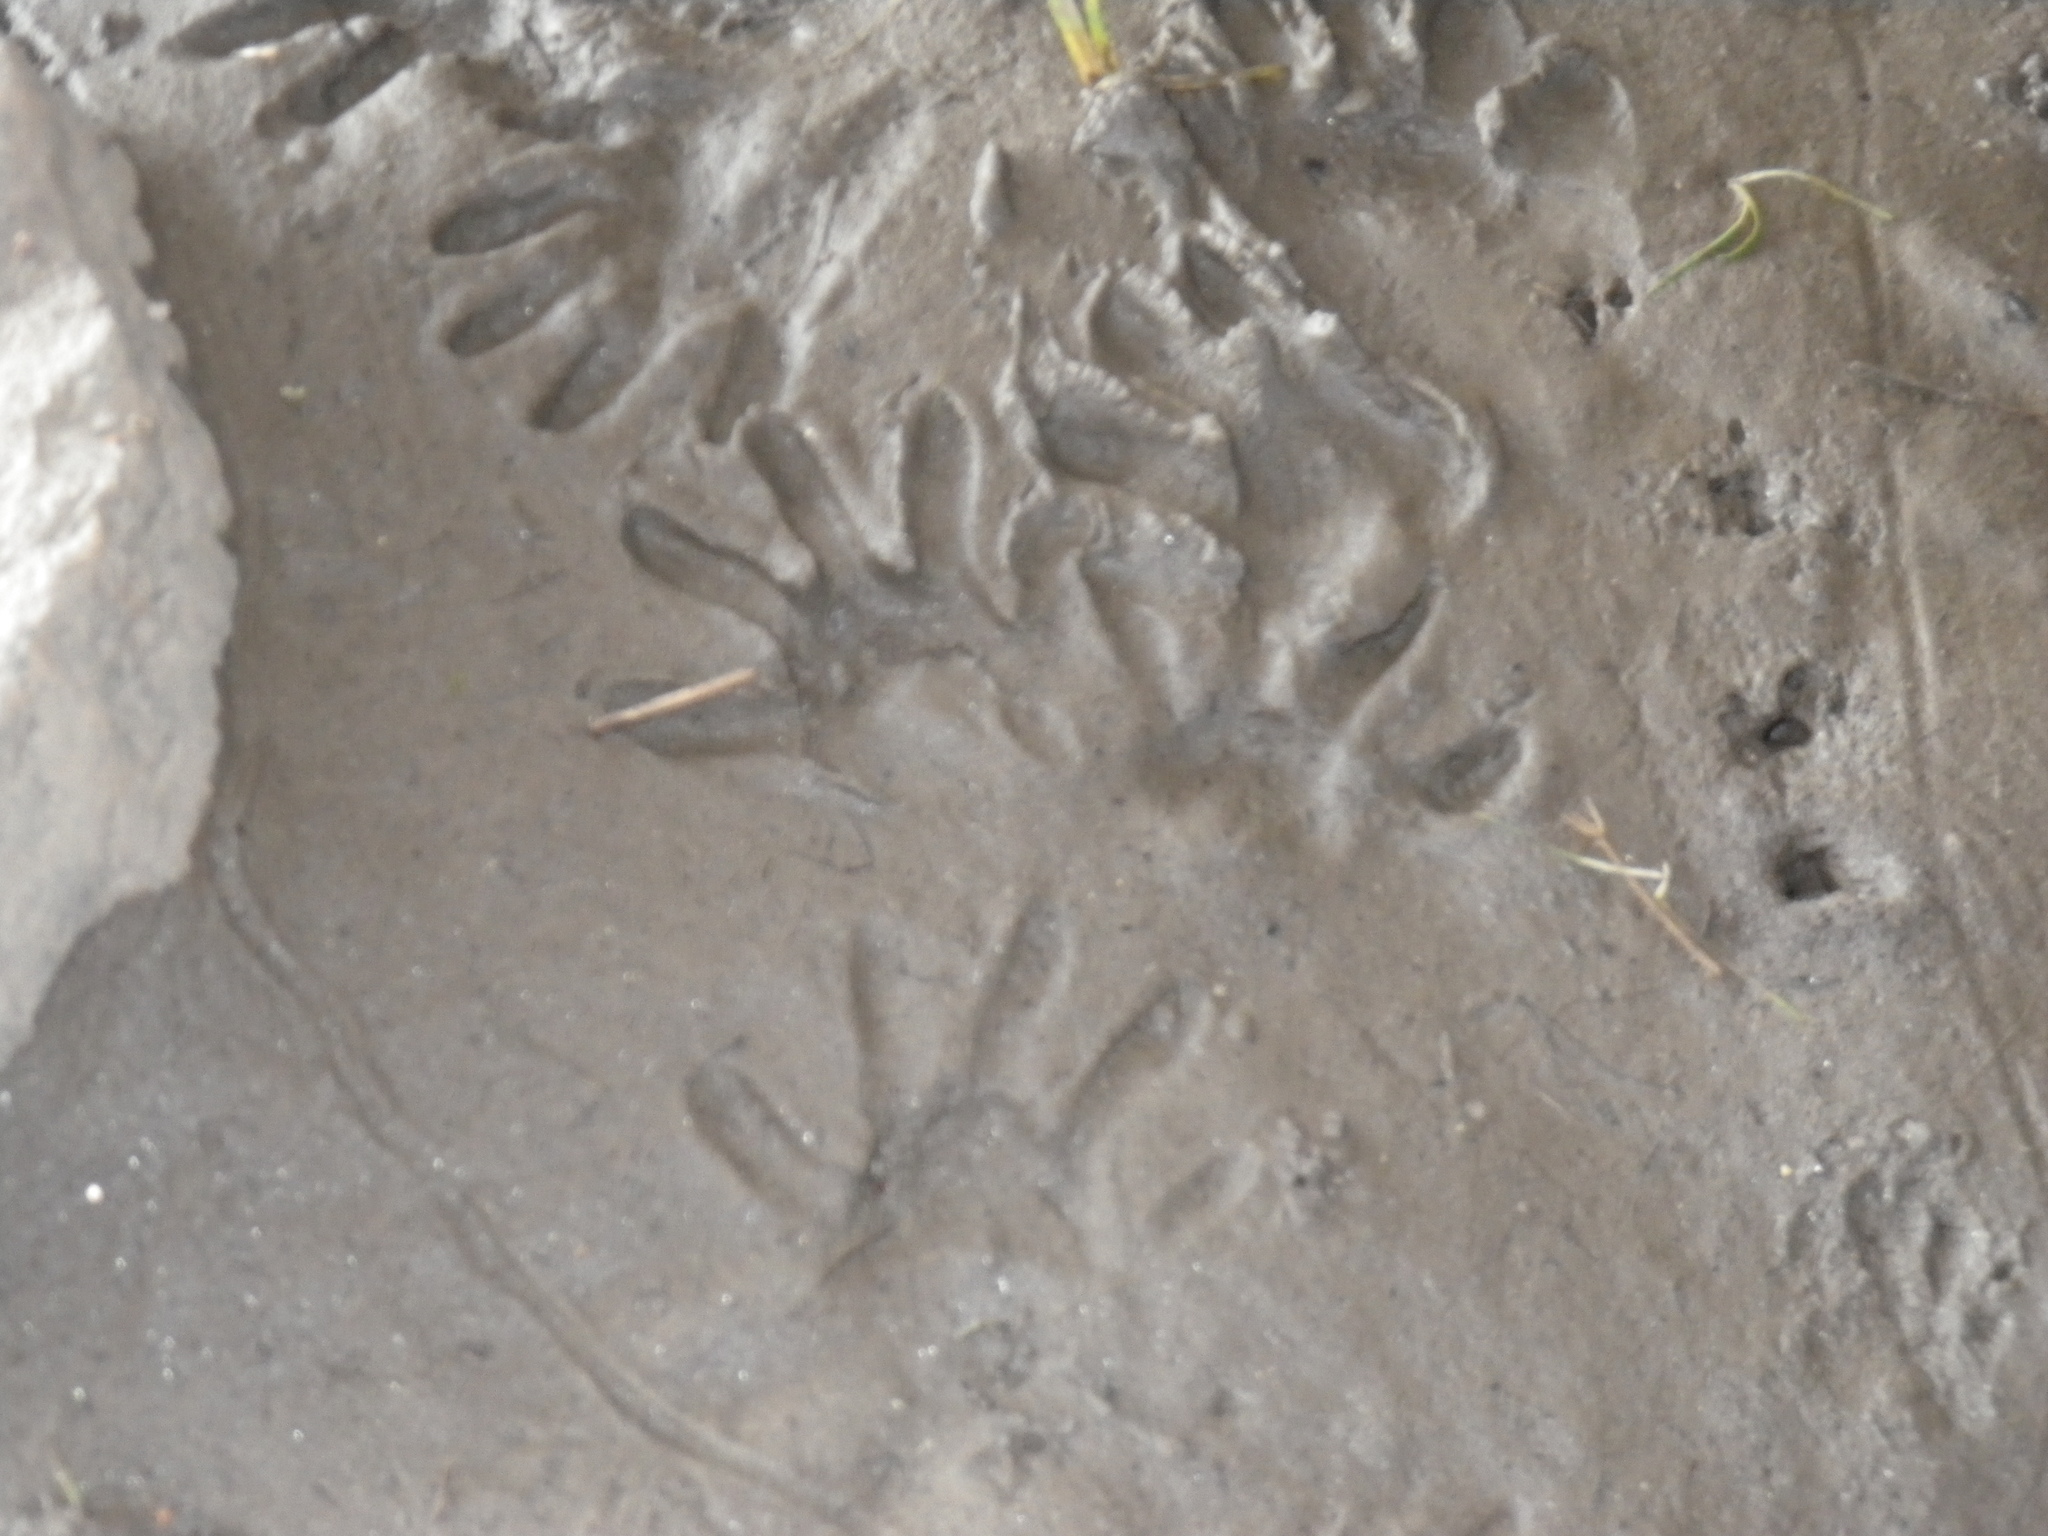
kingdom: Animalia
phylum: Chordata
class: Mammalia
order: Carnivora
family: Procyonidae
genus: Procyon
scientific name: Procyon lotor
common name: Raccoon
